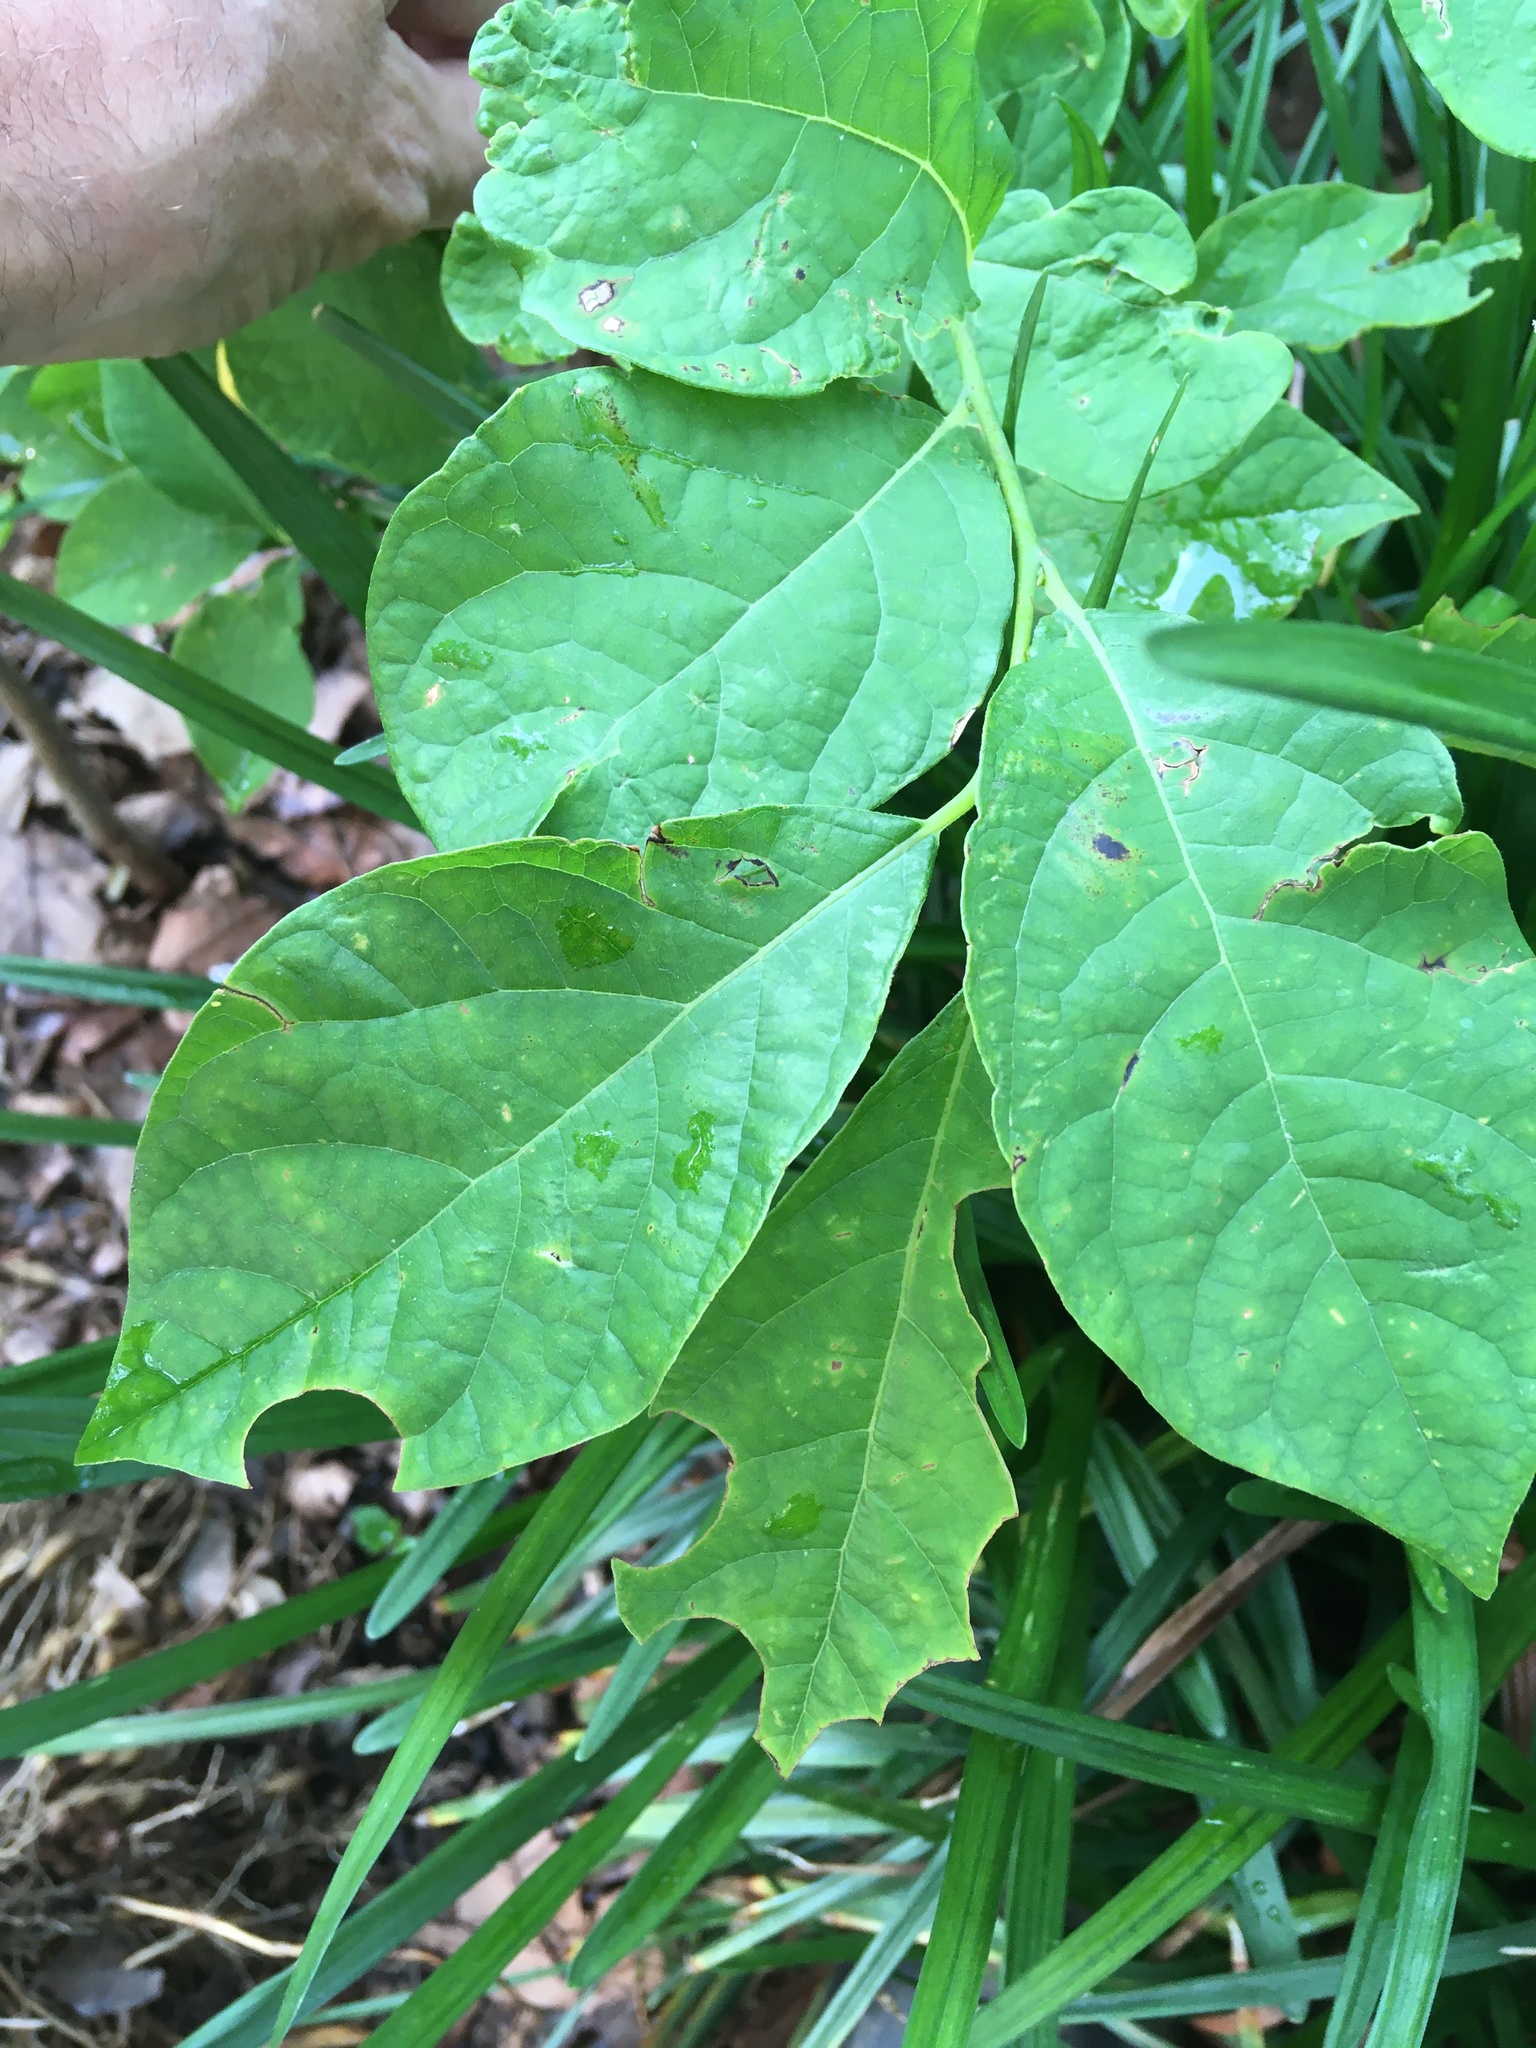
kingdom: Animalia
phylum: Arthropoda
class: Insecta
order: Hymenoptera
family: Megachilidae
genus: Megachile
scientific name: Megachile
